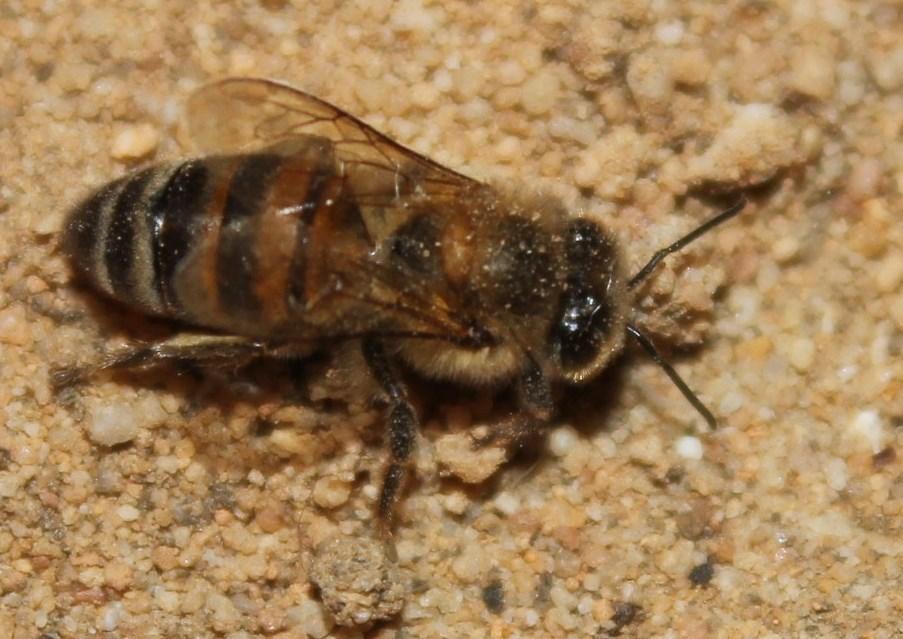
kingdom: Animalia
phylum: Arthropoda
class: Insecta
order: Hymenoptera
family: Apidae
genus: Apis
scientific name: Apis mellifera
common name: Honey bee
